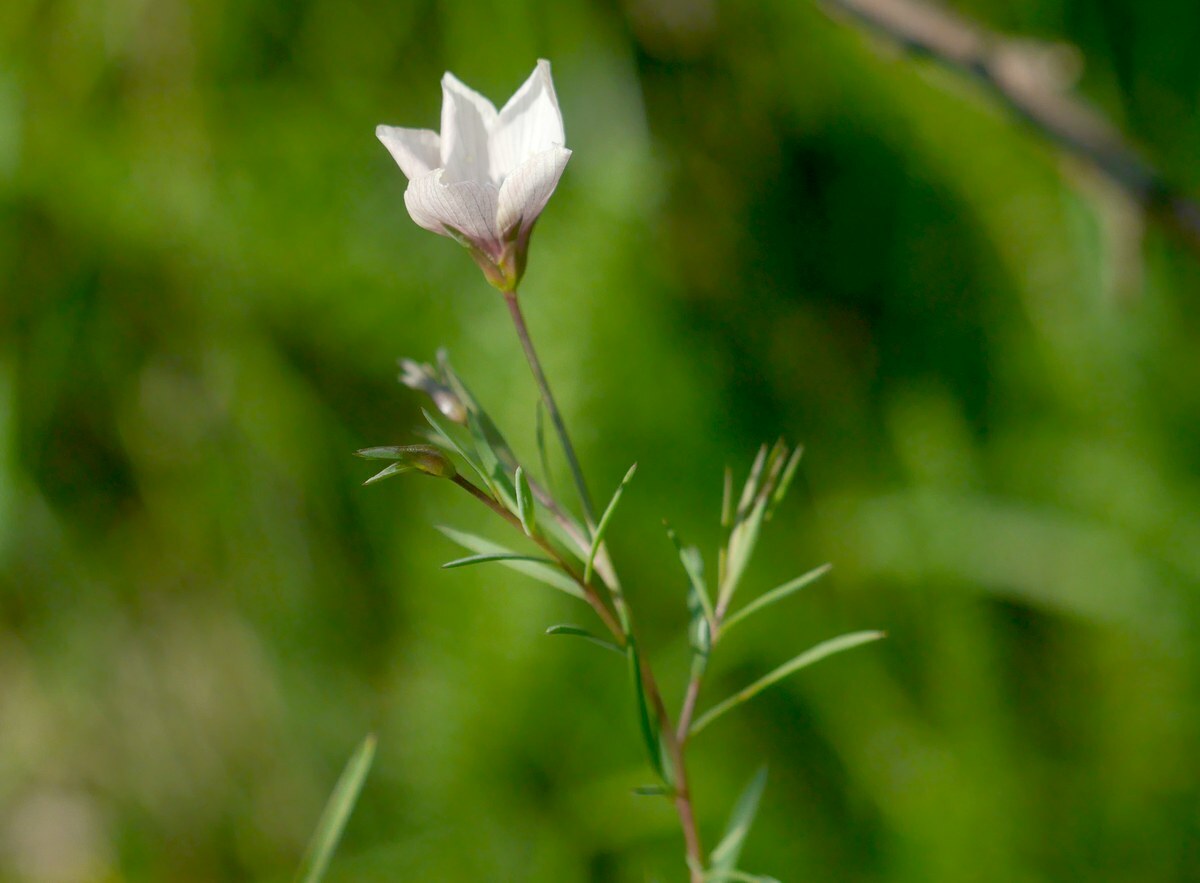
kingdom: Plantae
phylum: Tracheophyta
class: Magnoliopsida
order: Malpighiales
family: Linaceae
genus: Linum
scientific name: Linum tenuifolium
